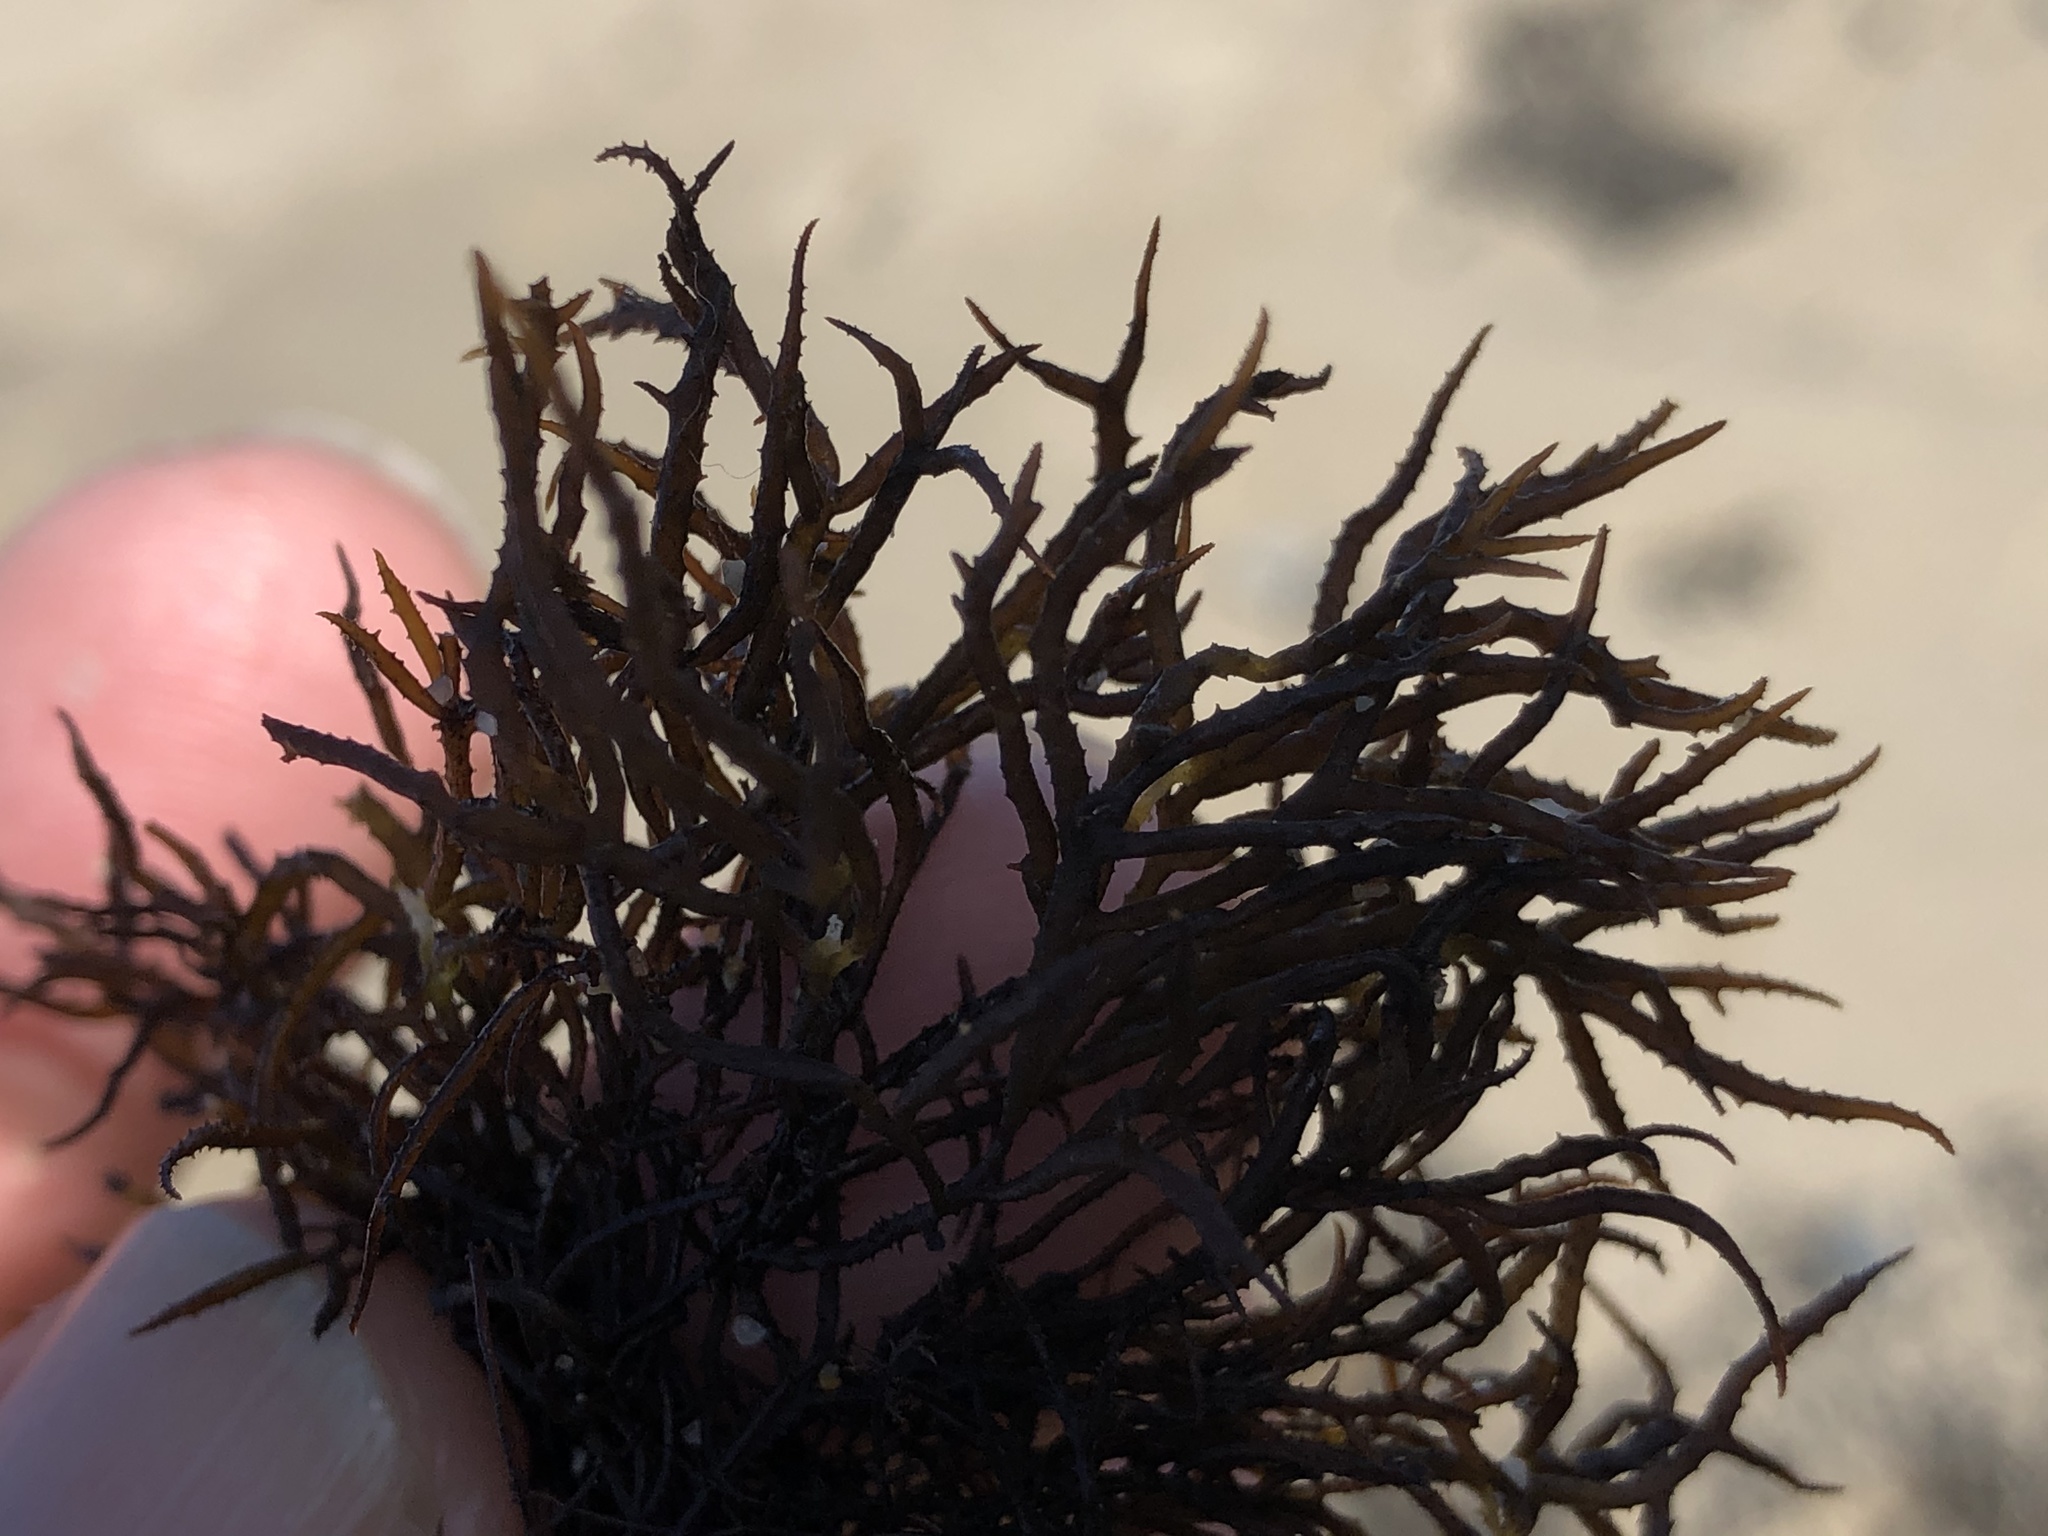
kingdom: Plantae
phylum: Rhodophyta
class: Florideophyceae
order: Gigartinales
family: Endocladiaceae
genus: Endocladia
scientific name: Endocladia muricata
